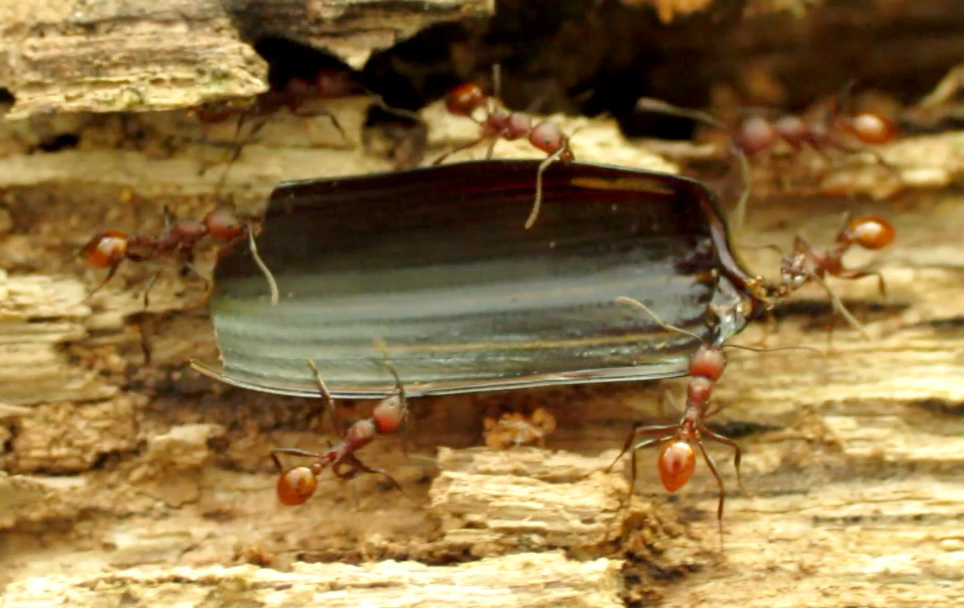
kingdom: Animalia
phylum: Arthropoda
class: Insecta
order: Hymenoptera
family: Formicidae
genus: Aphaenogaster
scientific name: Aphaenogaster tennesseensis
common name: Tennessee thread-waisted ant
